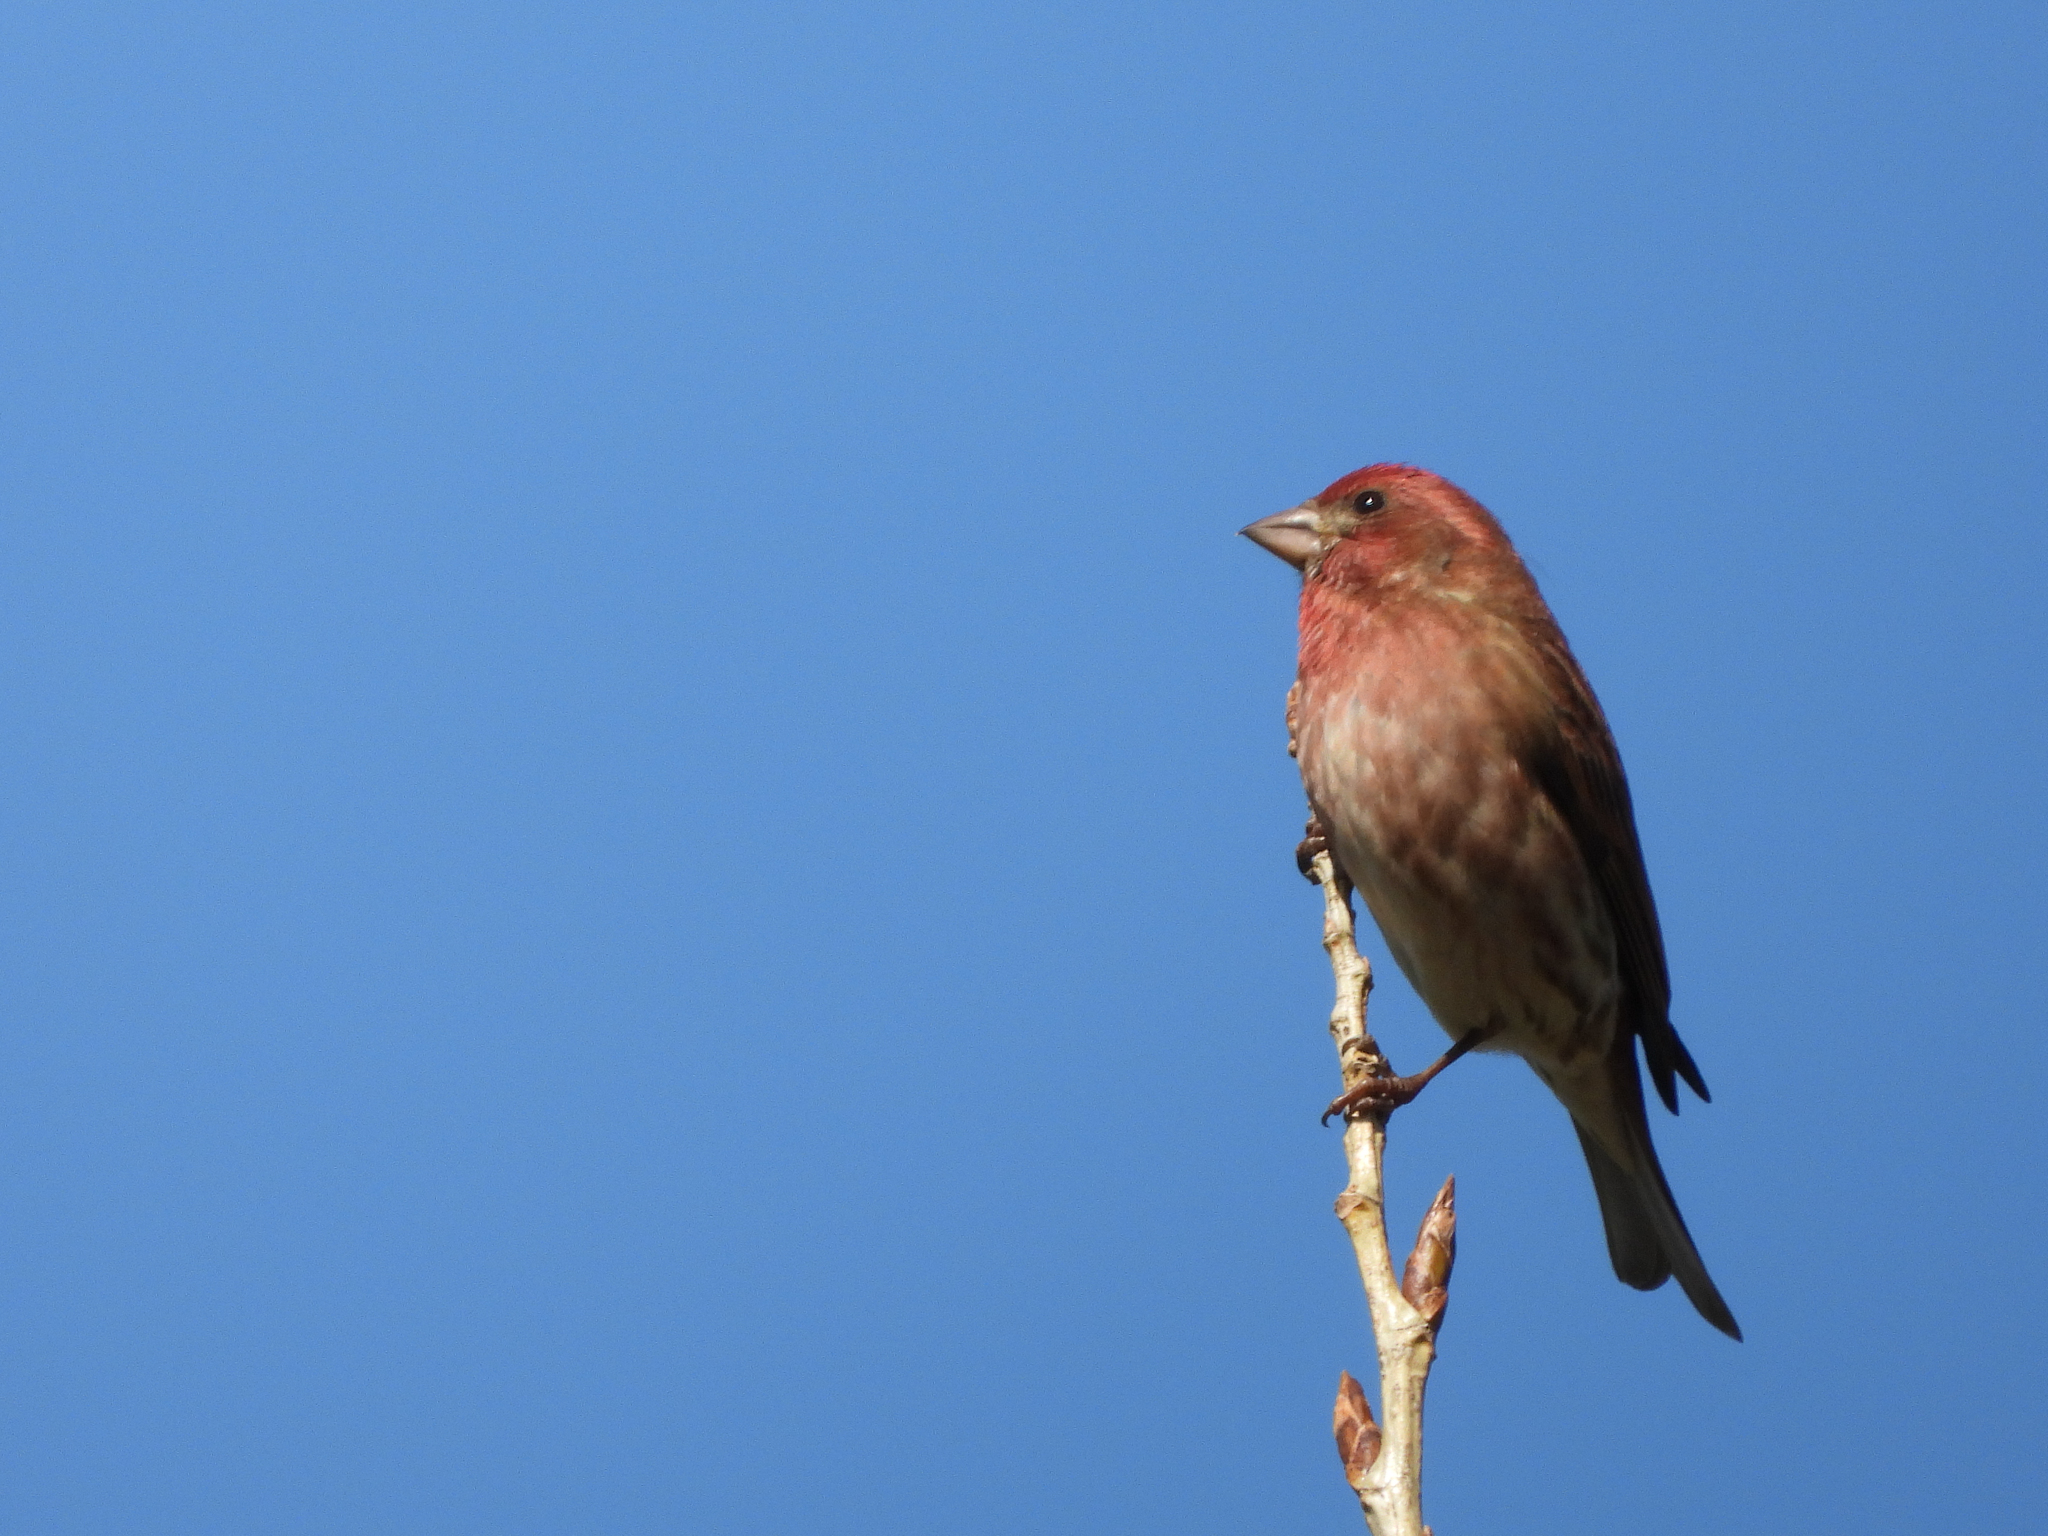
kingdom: Animalia
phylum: Chordata
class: Aves
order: Passeriformes
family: Fringillidae
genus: Haemorhous
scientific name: Haemorhous purpureus
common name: Purple finch
